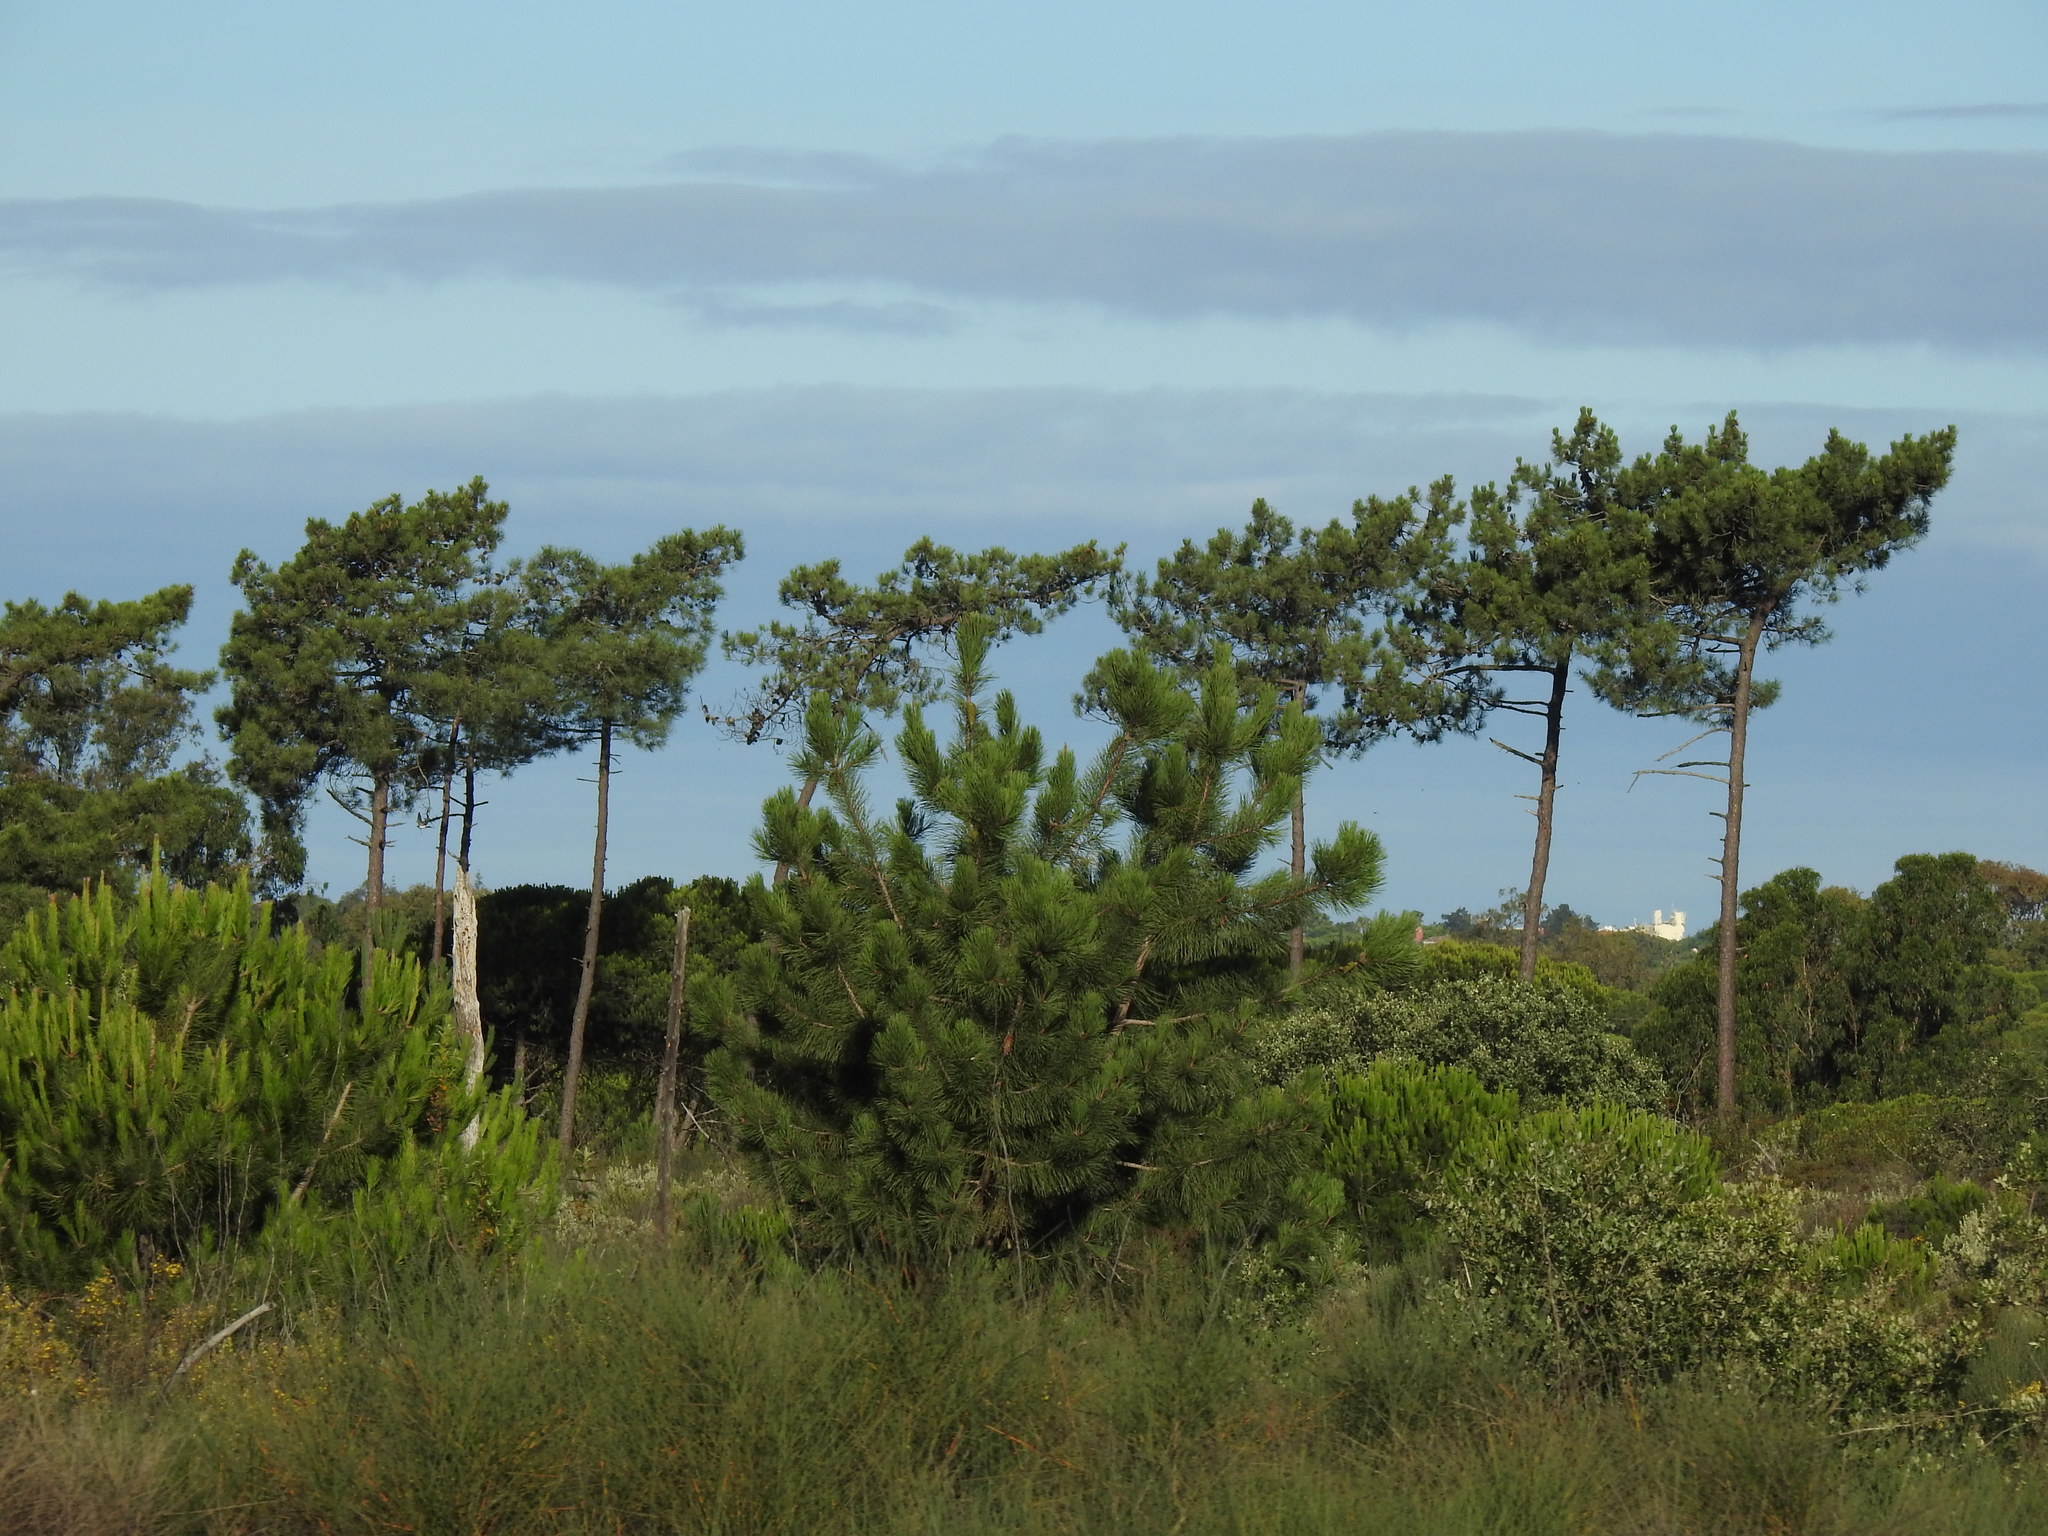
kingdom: Plantae
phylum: Tracheophyta
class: Pinopsida
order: Pinales
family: Pinaceae
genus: Pinus
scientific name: Pinus pinaster
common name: Maritime pine
